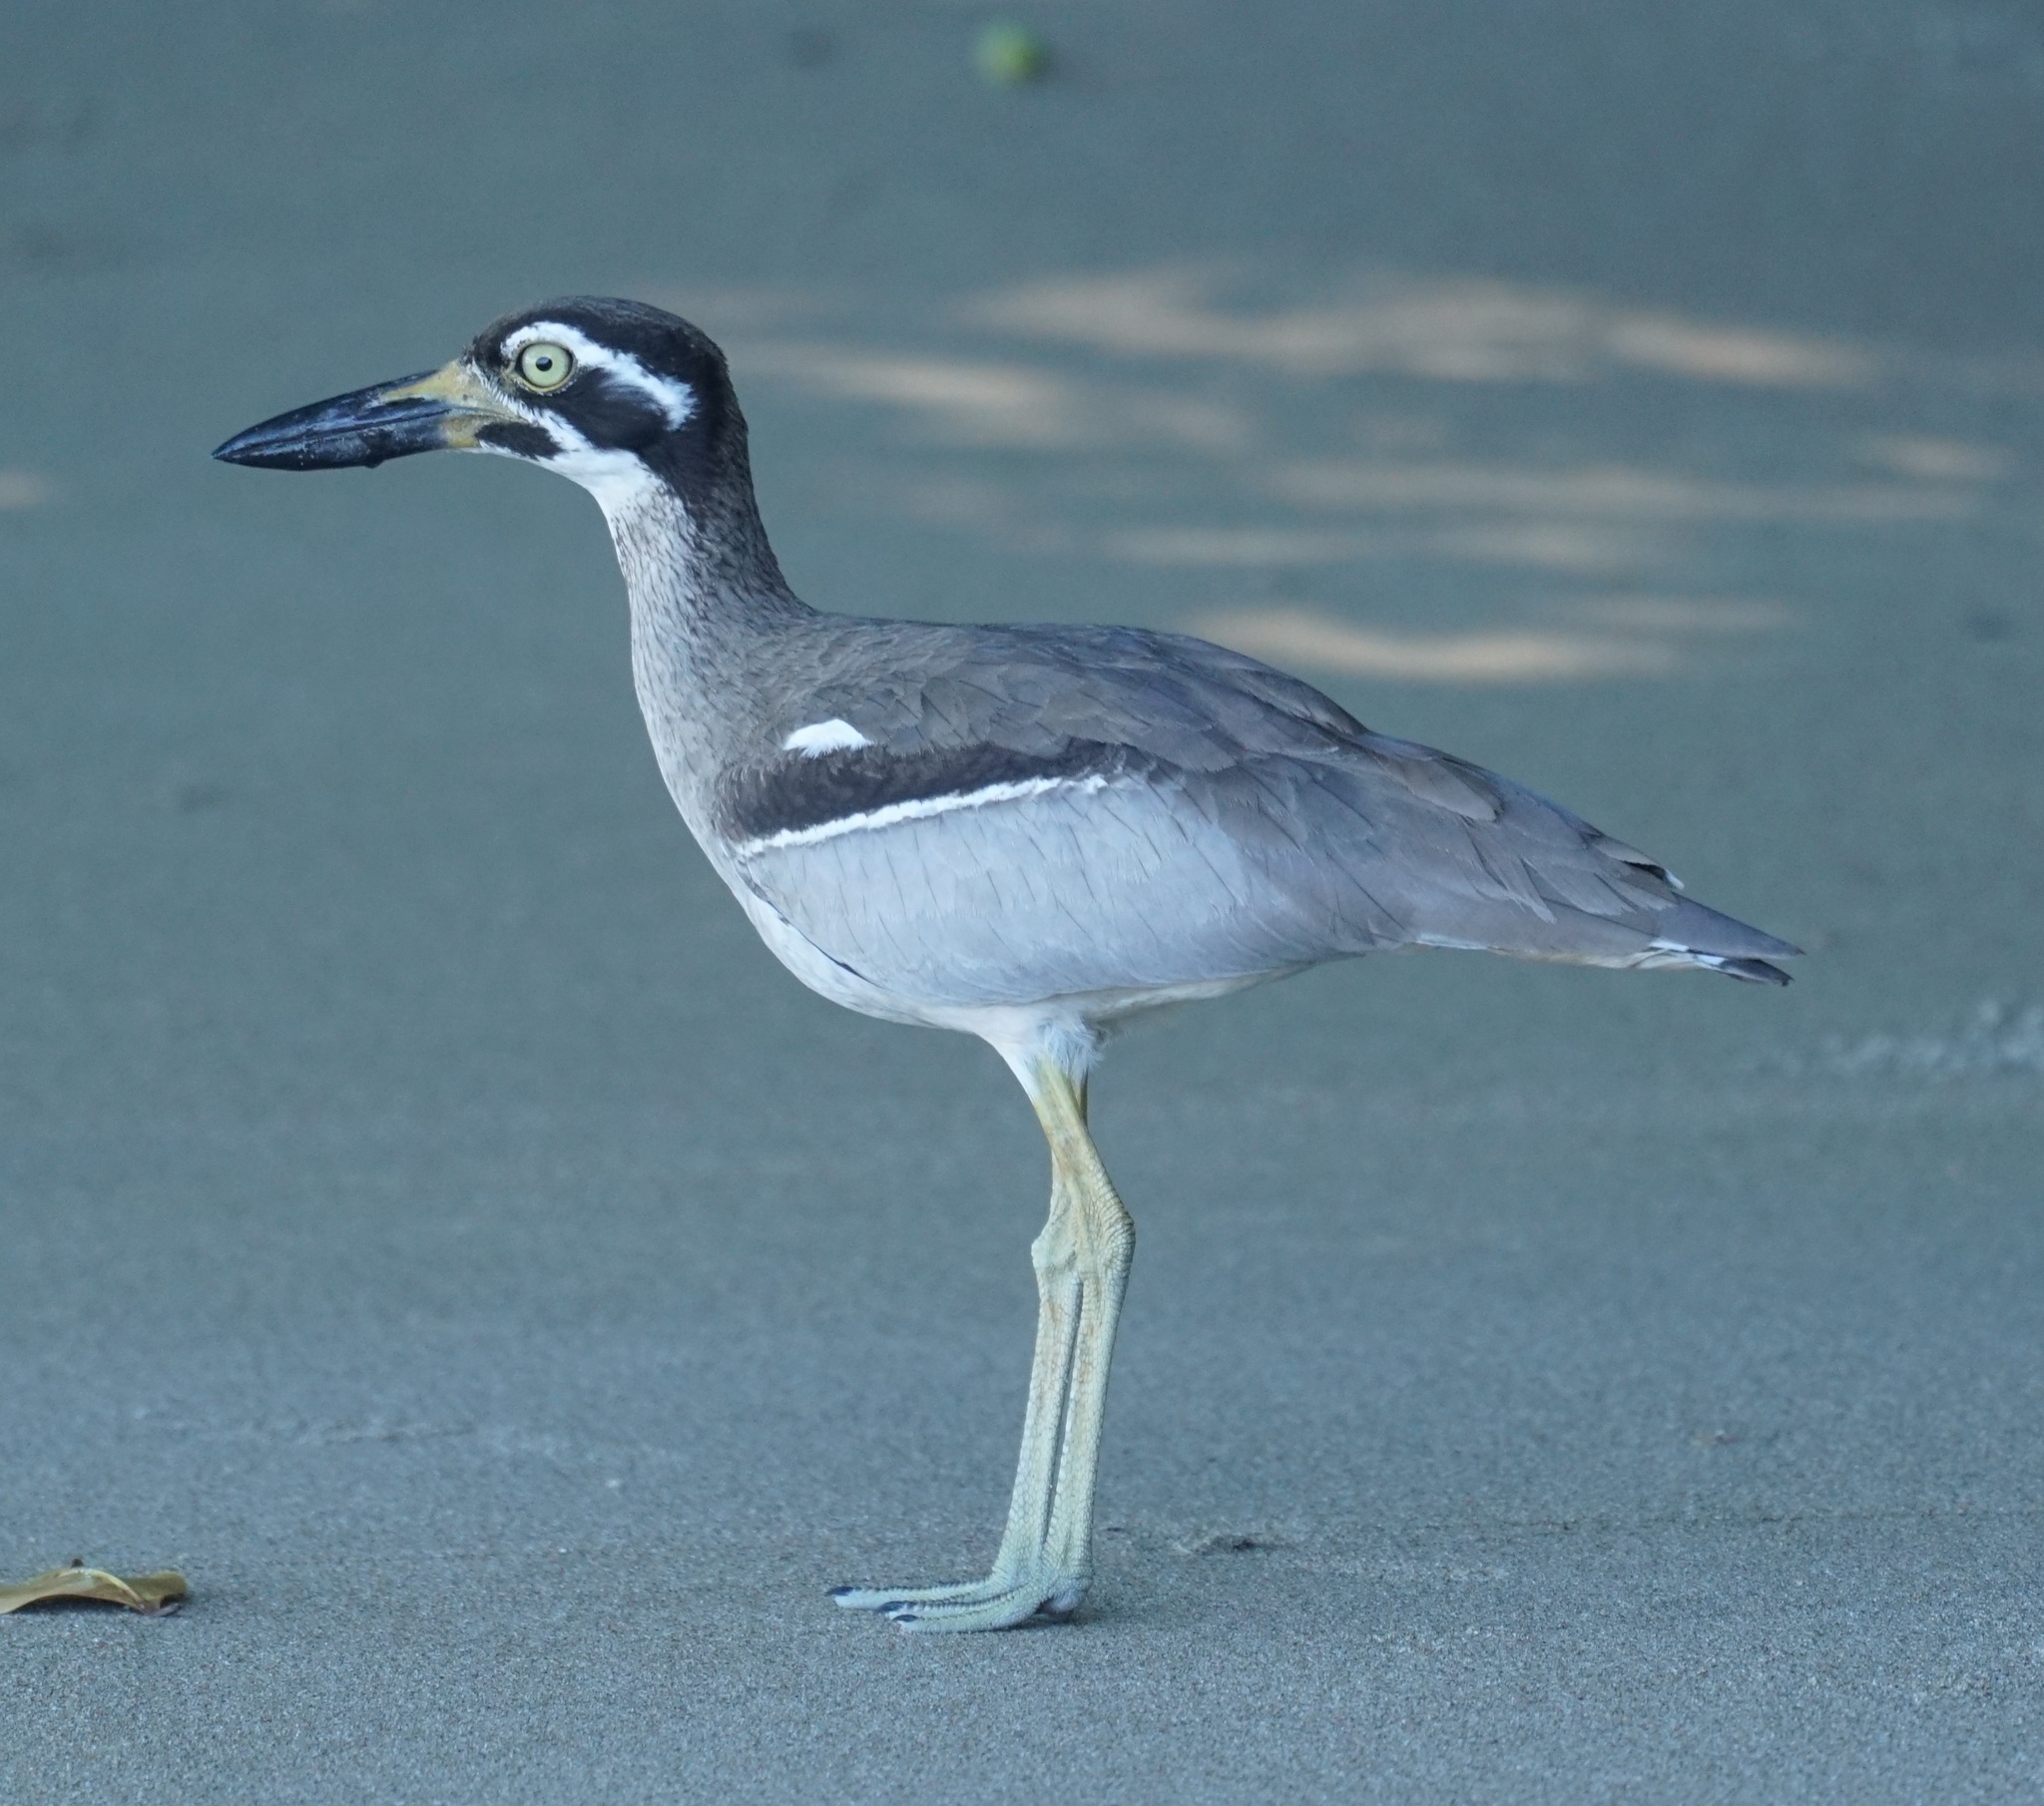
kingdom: Animalia
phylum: Chordata
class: Aves
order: Charadriiformes
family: Burhinidae
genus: Esacus
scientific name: Esacus magnirostris
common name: Beach stone-curlew
